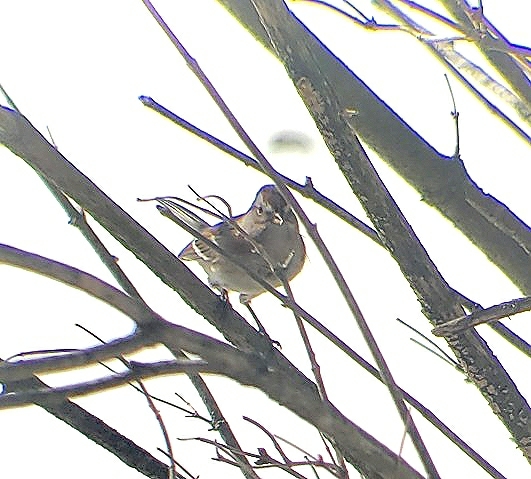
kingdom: Animalia
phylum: Chordata
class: Aves
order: Passeriformes
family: Passerellidae
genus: Spizelloides
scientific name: Spizelloides arborea
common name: American tree sparrow
